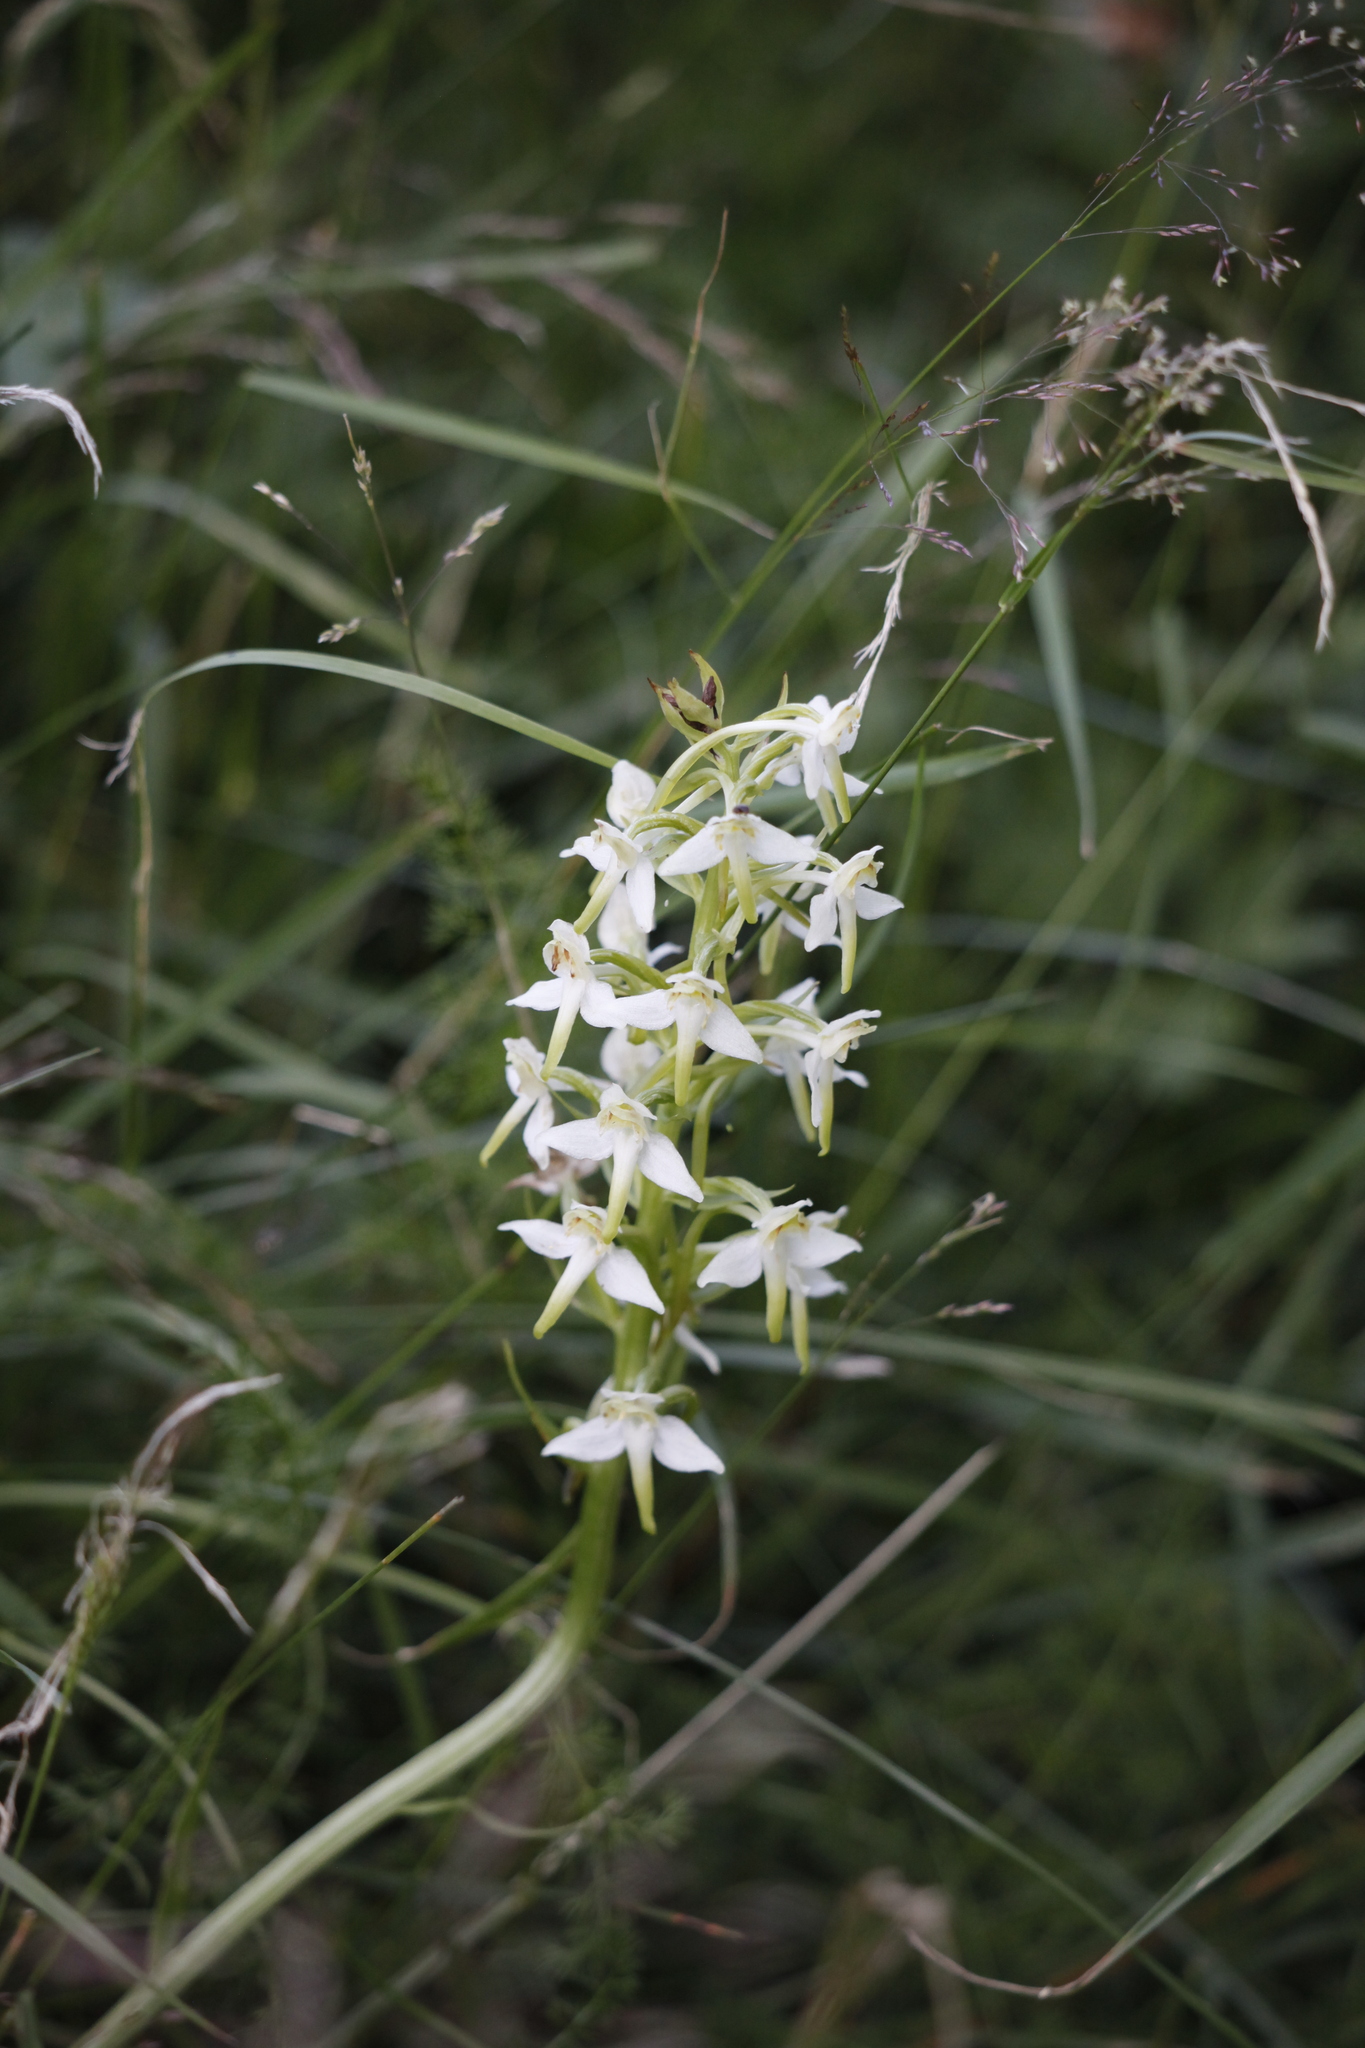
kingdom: Plantae
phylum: Tracheophyta
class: Liliopsida
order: Asparagales
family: Orchidaceae
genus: Platanthera
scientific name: Platanthera chlorantha
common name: Greater butterfly-orchid
